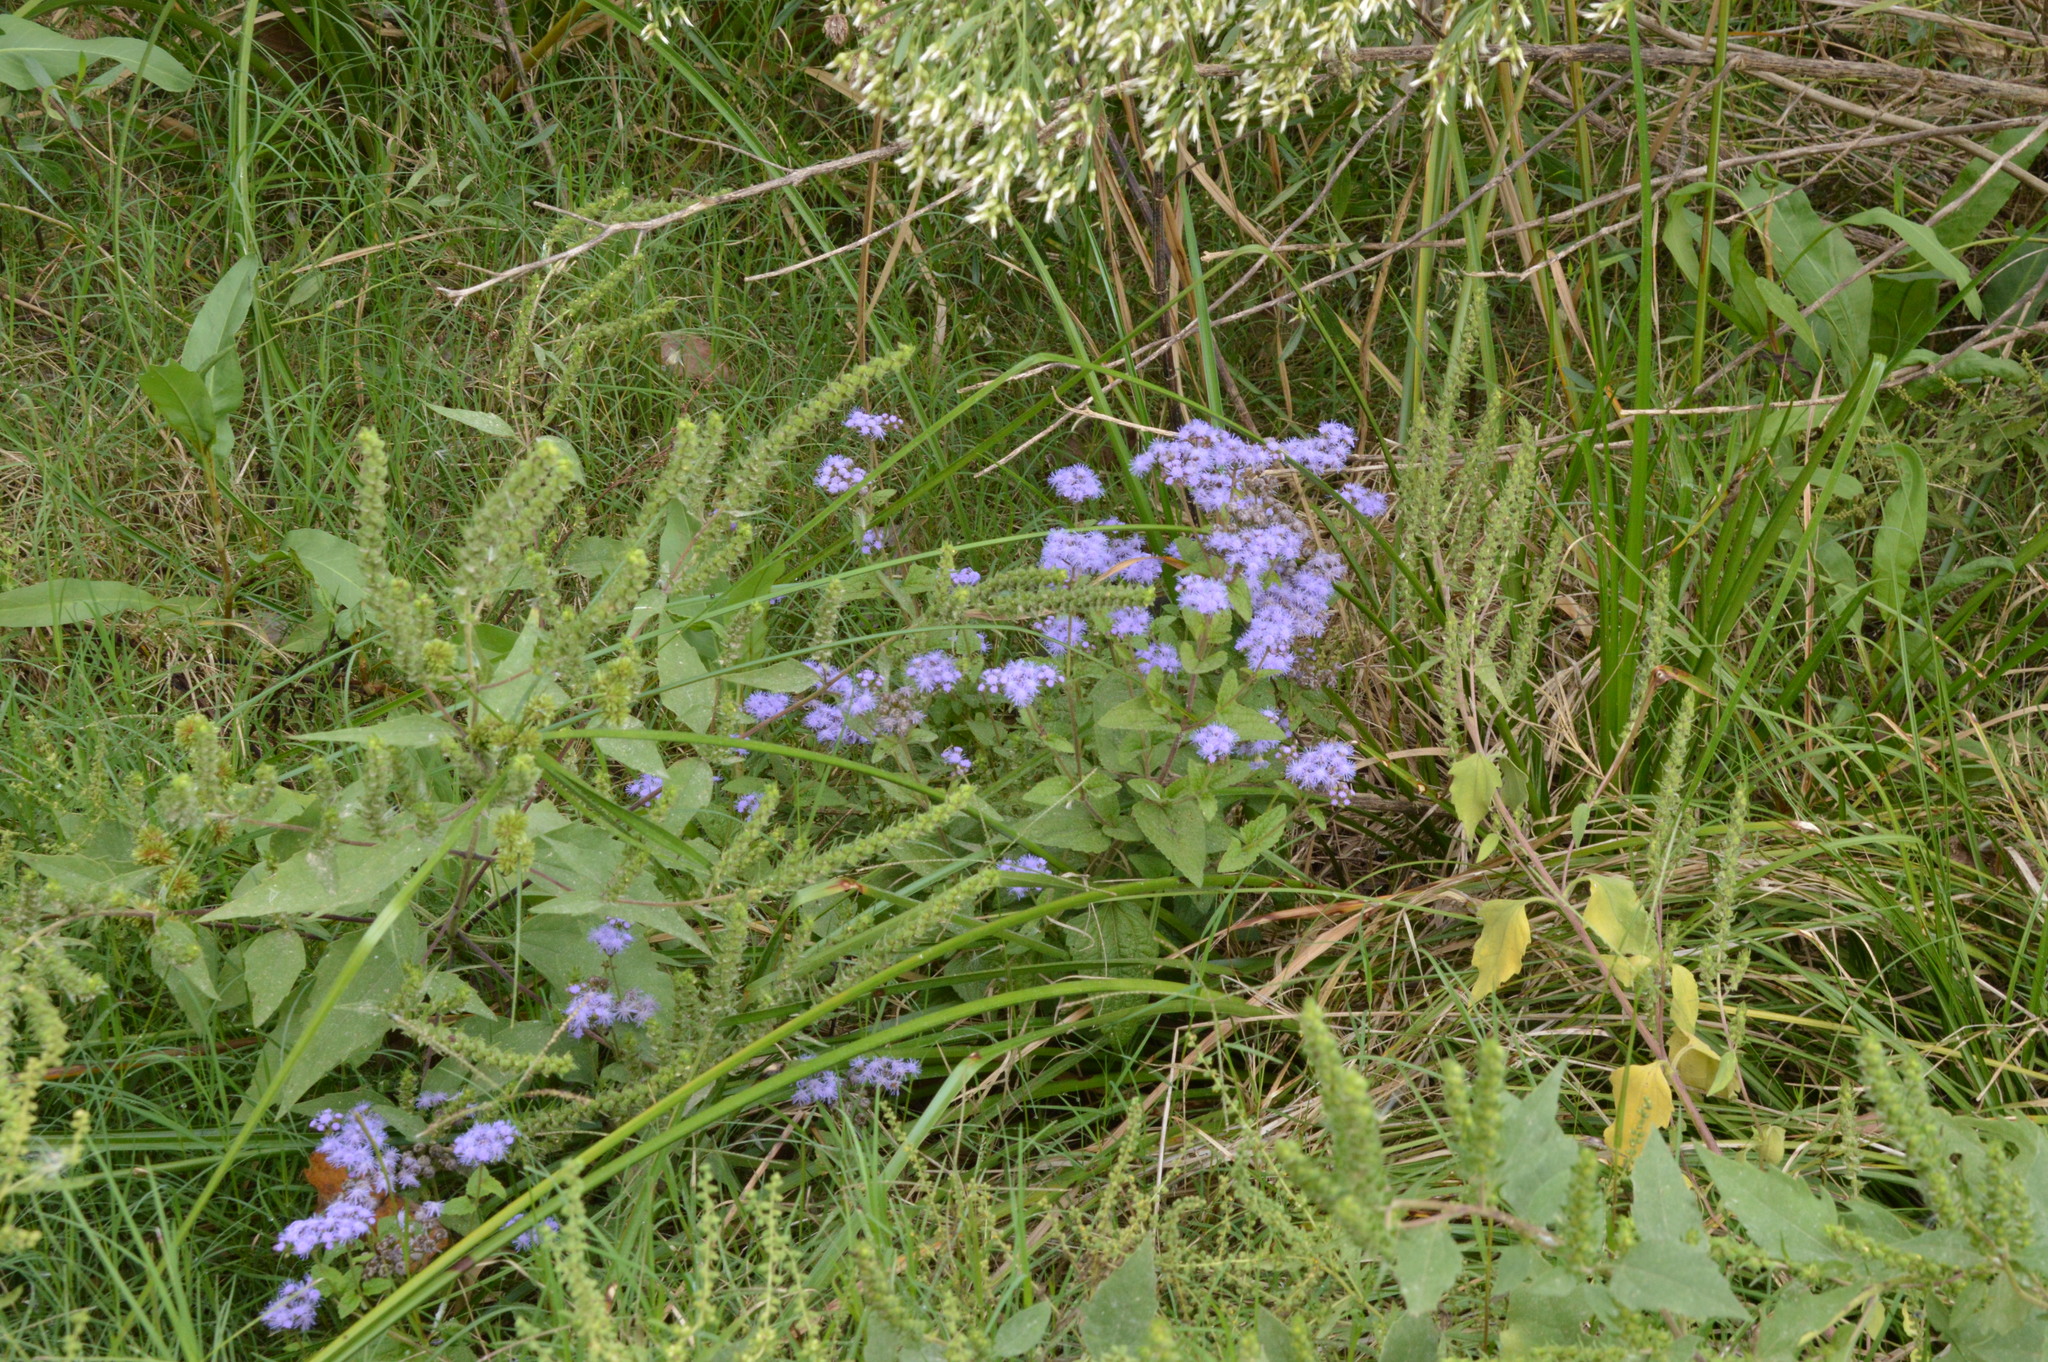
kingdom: Plantae
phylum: Tracheophyta
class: Magnoliopsida
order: Asterales
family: Asteraceae
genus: Conoclinium
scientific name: Conoclinium coelestinum
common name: Blue mistflower
